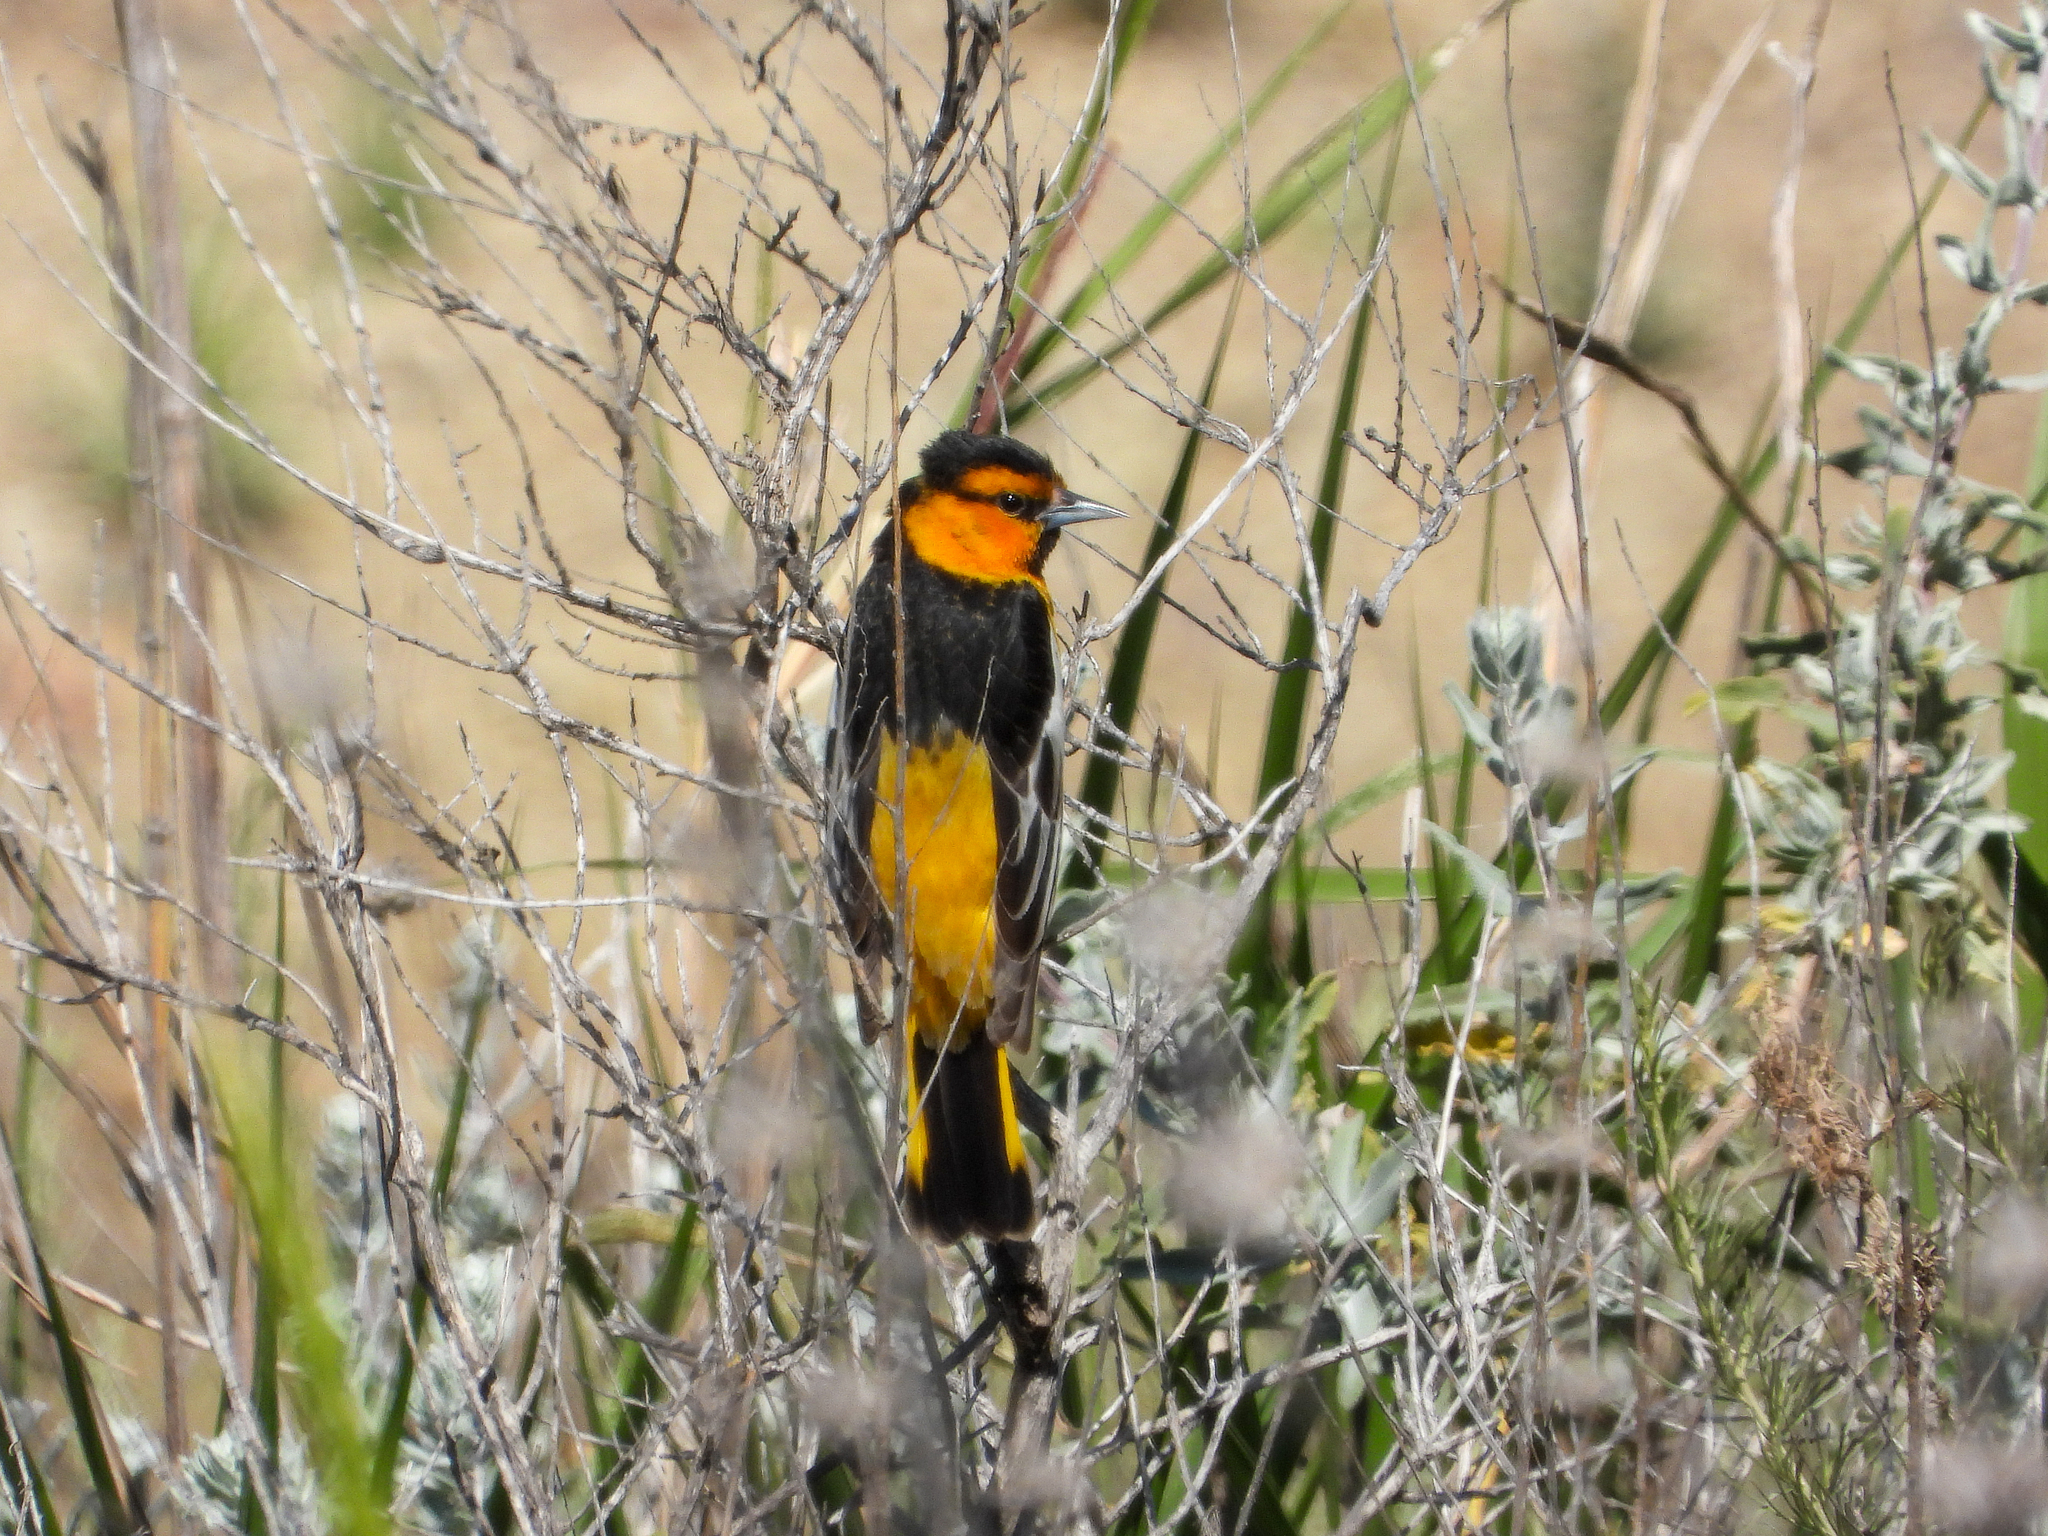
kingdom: Animalia
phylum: Chordata
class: Aves
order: Passeriformes
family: Icteridae
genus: Icterus
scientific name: Icterus bullockii
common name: Bullock's oriole
